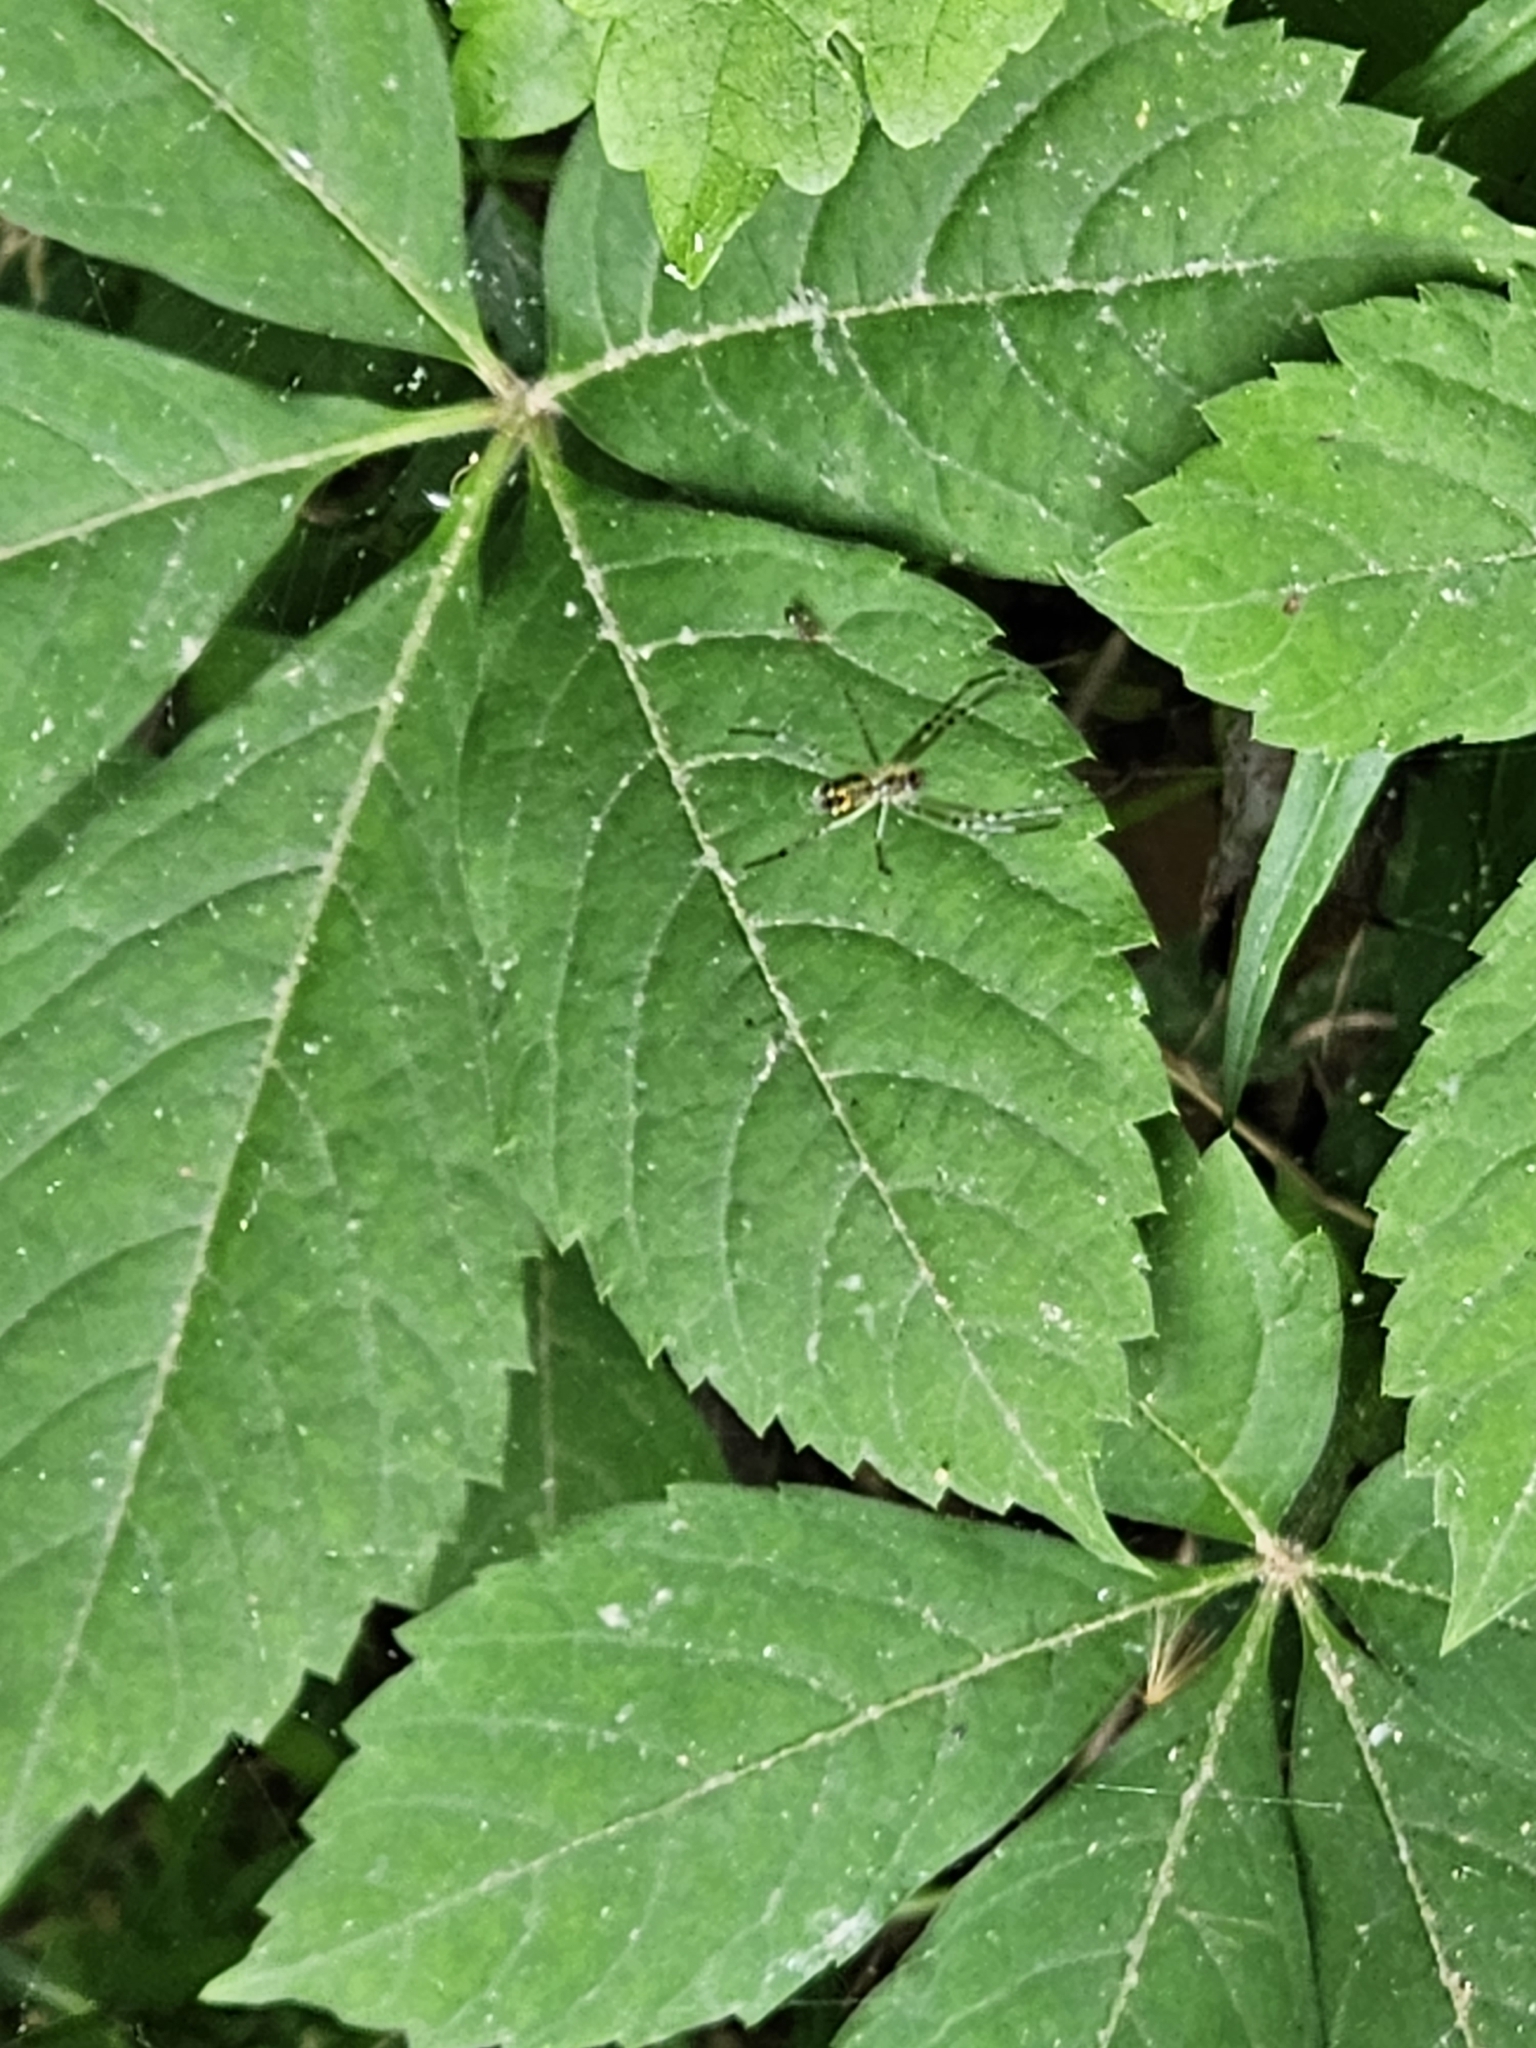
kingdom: Animalia
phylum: Arthropoda
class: Arachnida
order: Araneae
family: Tetragnathidae
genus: Leucauge
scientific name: Leucauge venusta
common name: Longjawed orb weavers
